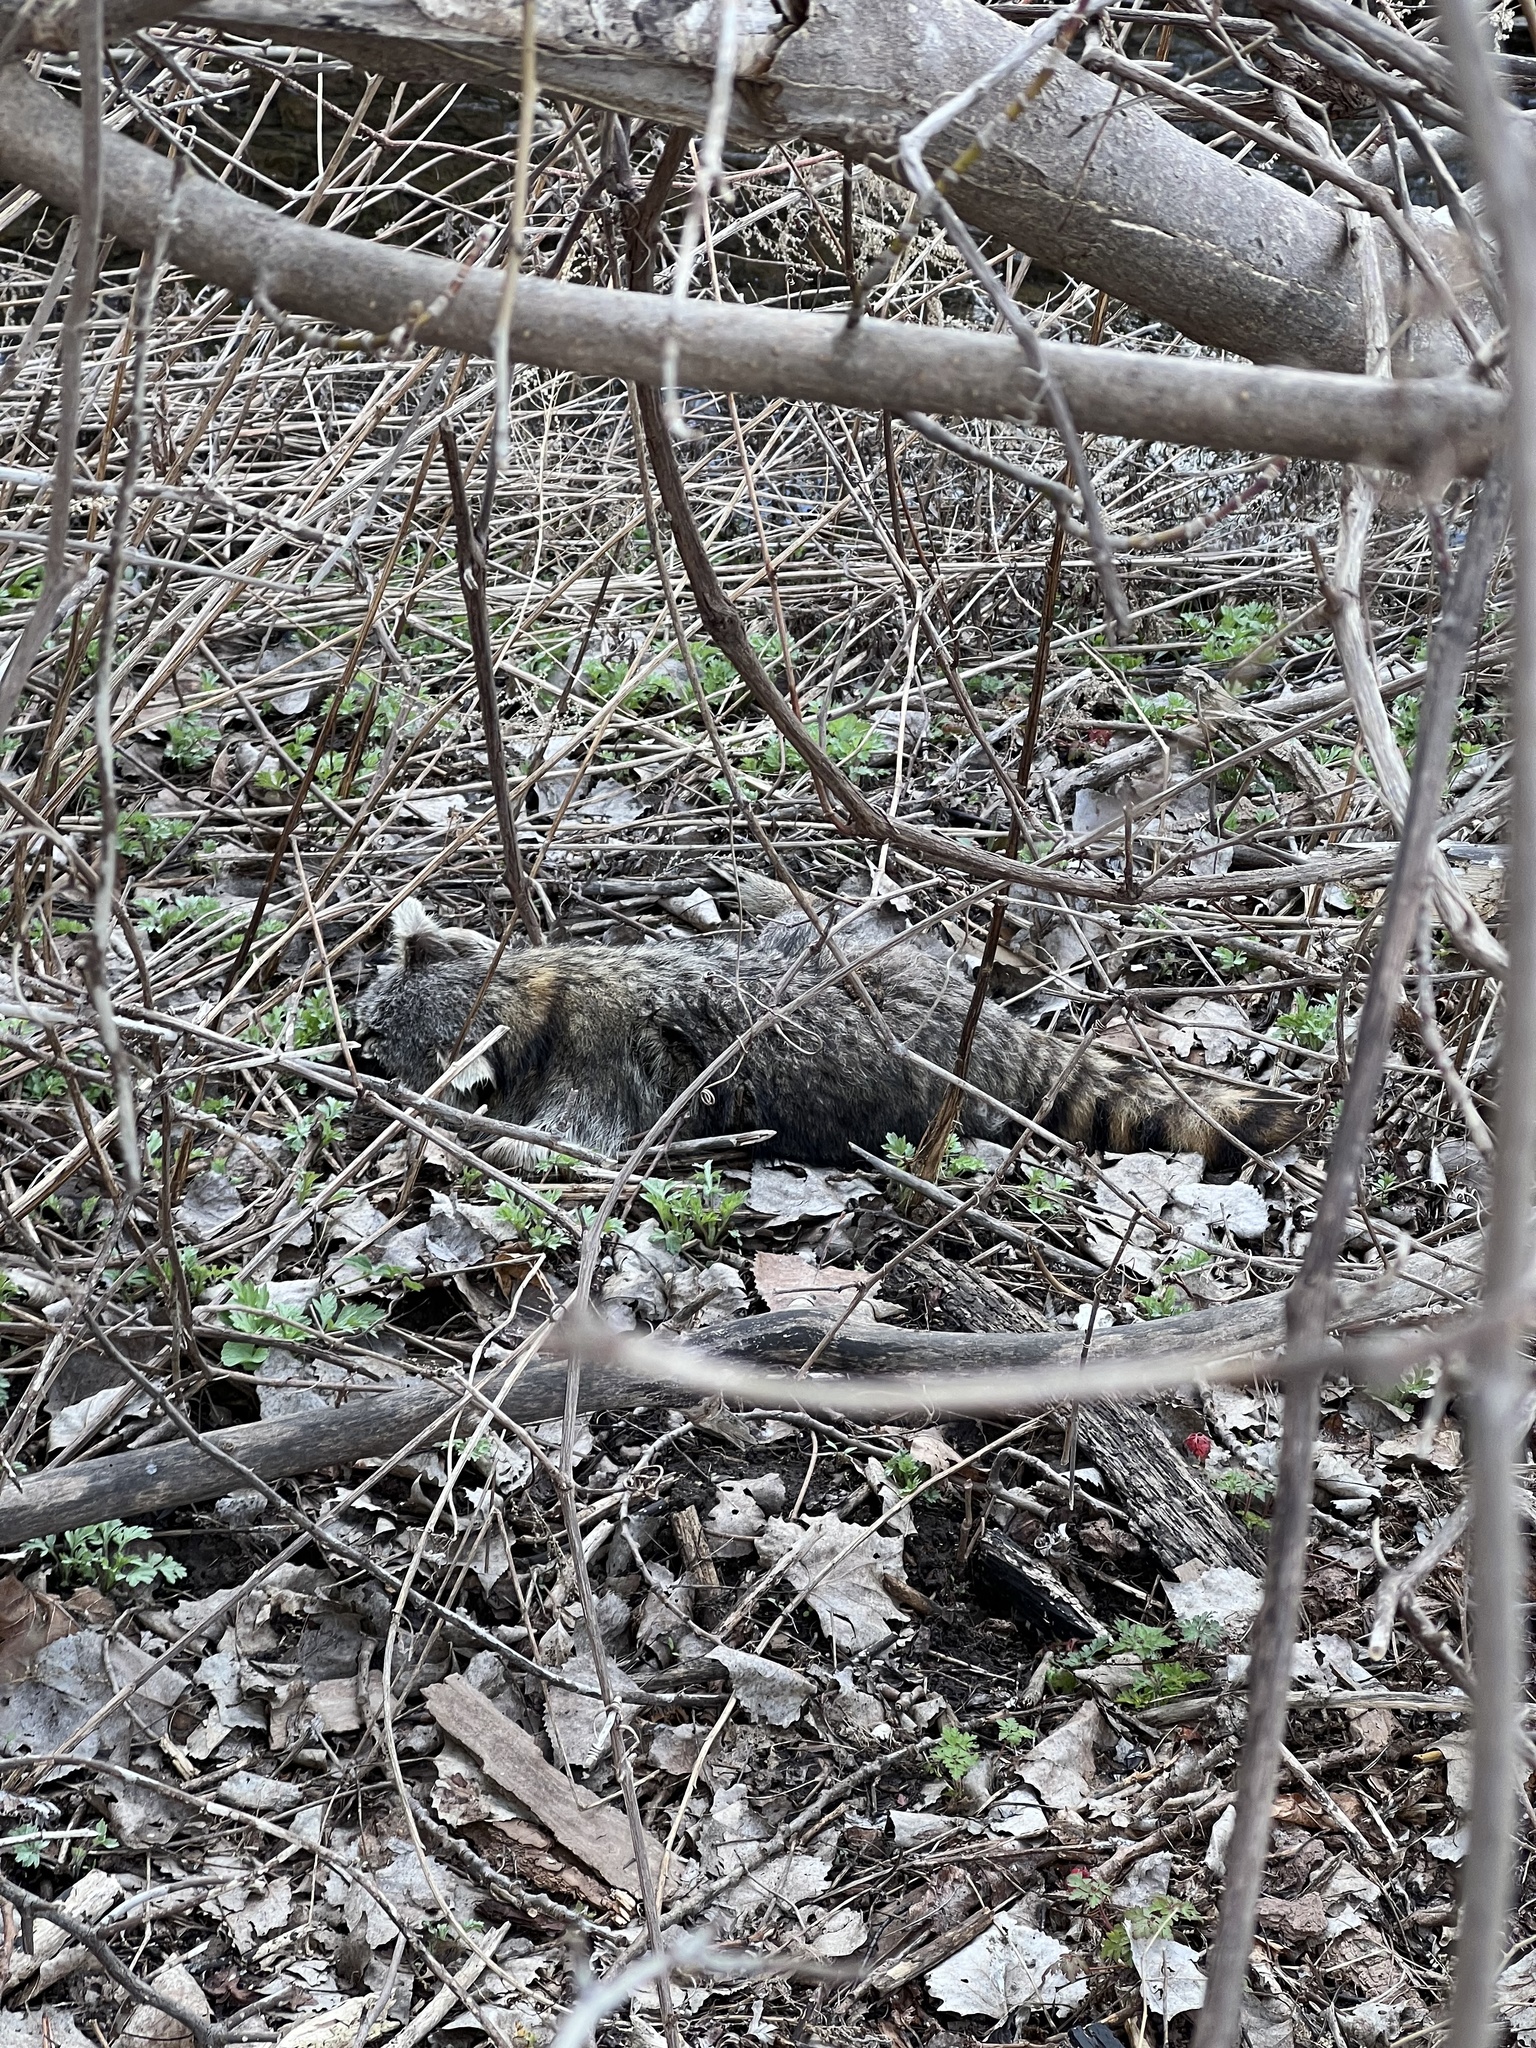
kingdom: Animalia
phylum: Chordata
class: Mammalia
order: Carnivora
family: Procyonidae
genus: Procyon
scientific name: Procyon lotor
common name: Raccoon
